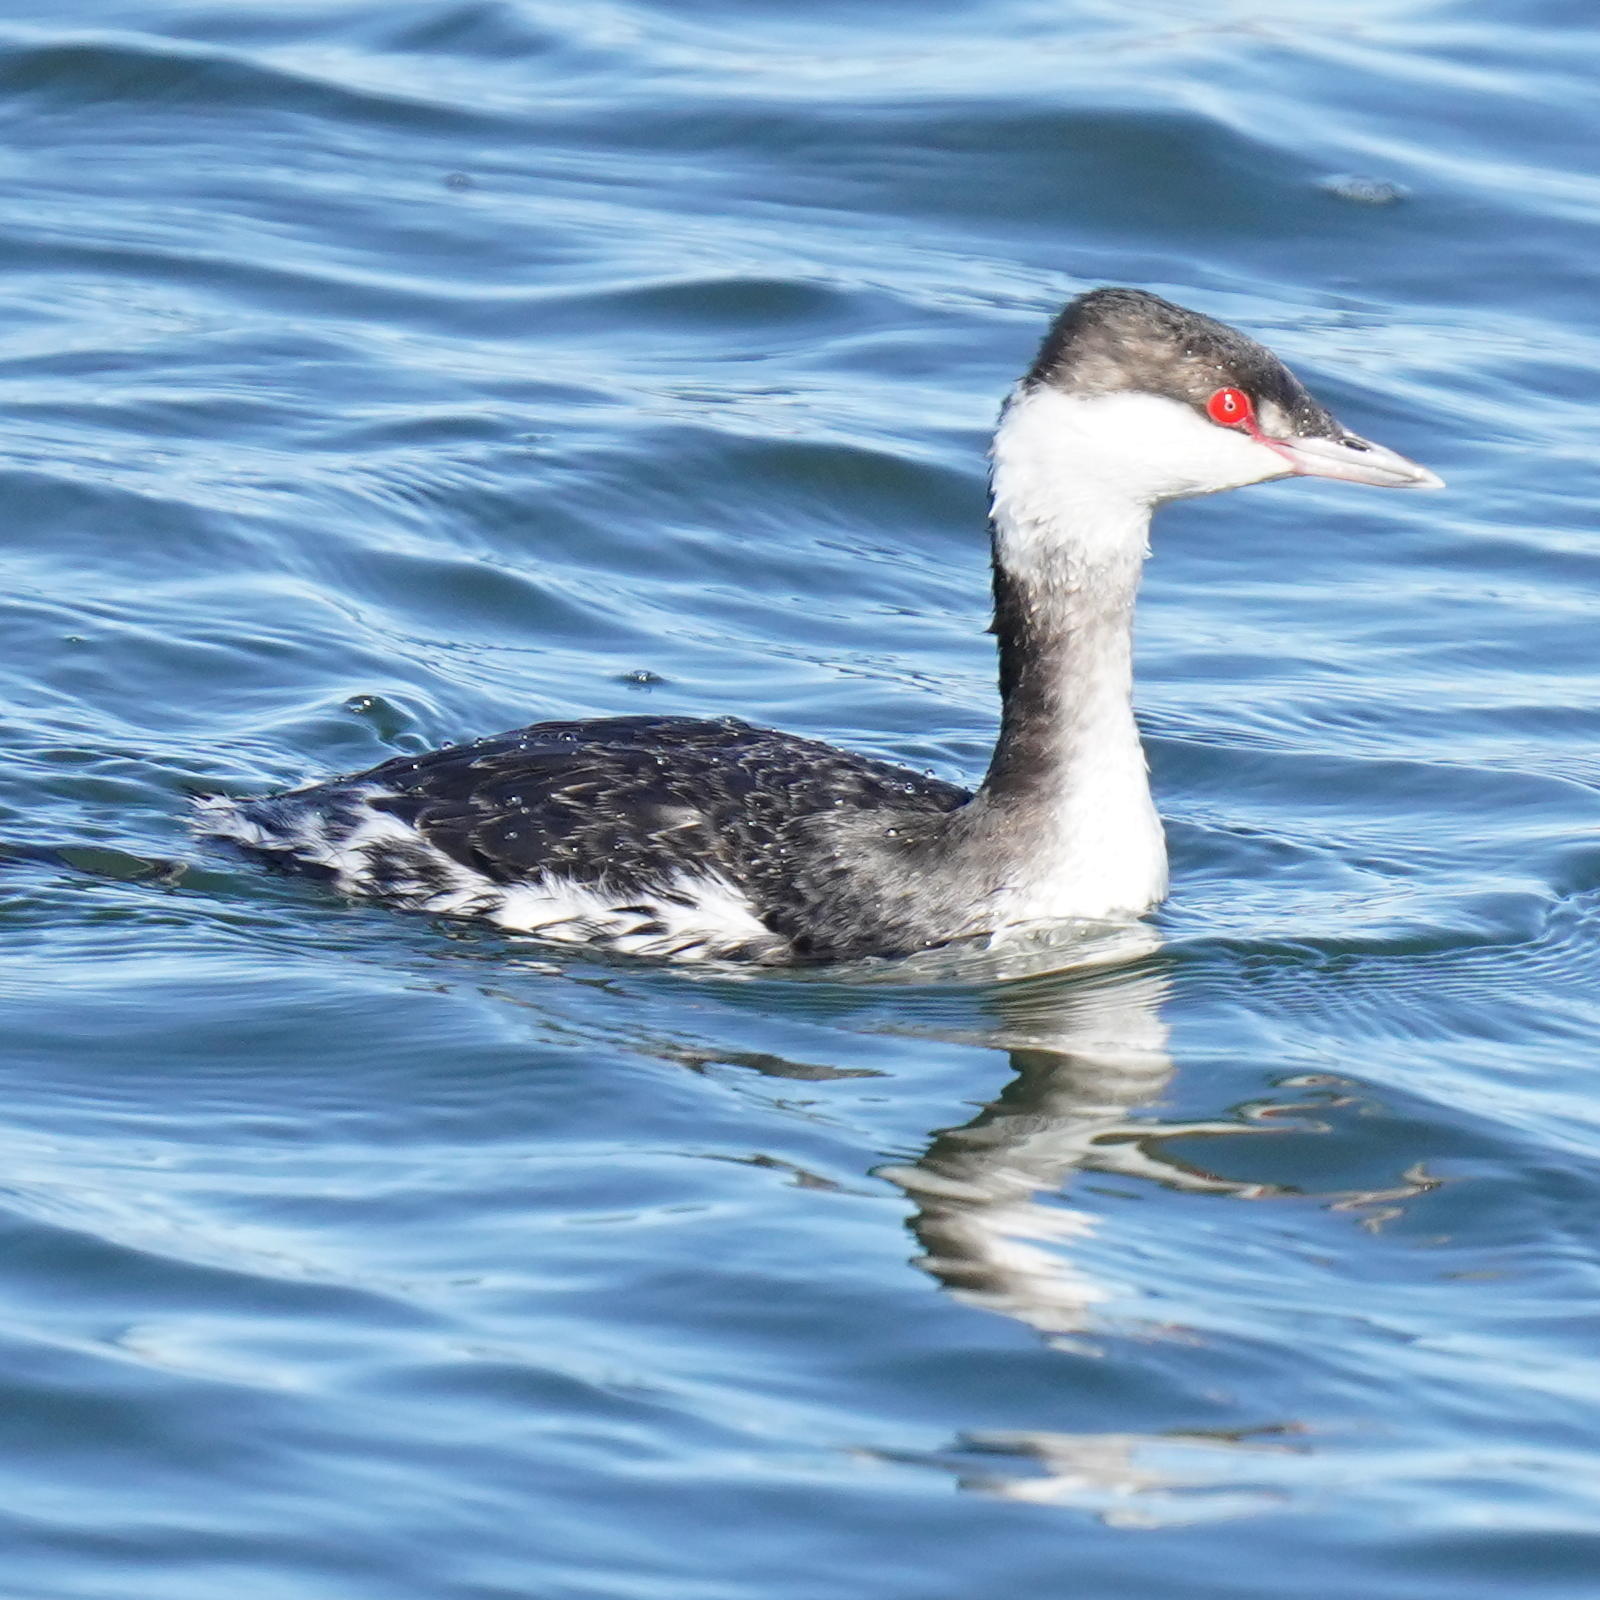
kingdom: Animalia
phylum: Chordata
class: Aves
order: Podicipediformes
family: Podicipedidae
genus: Podiceps
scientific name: Podiceps auritus
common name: Horned grebe
